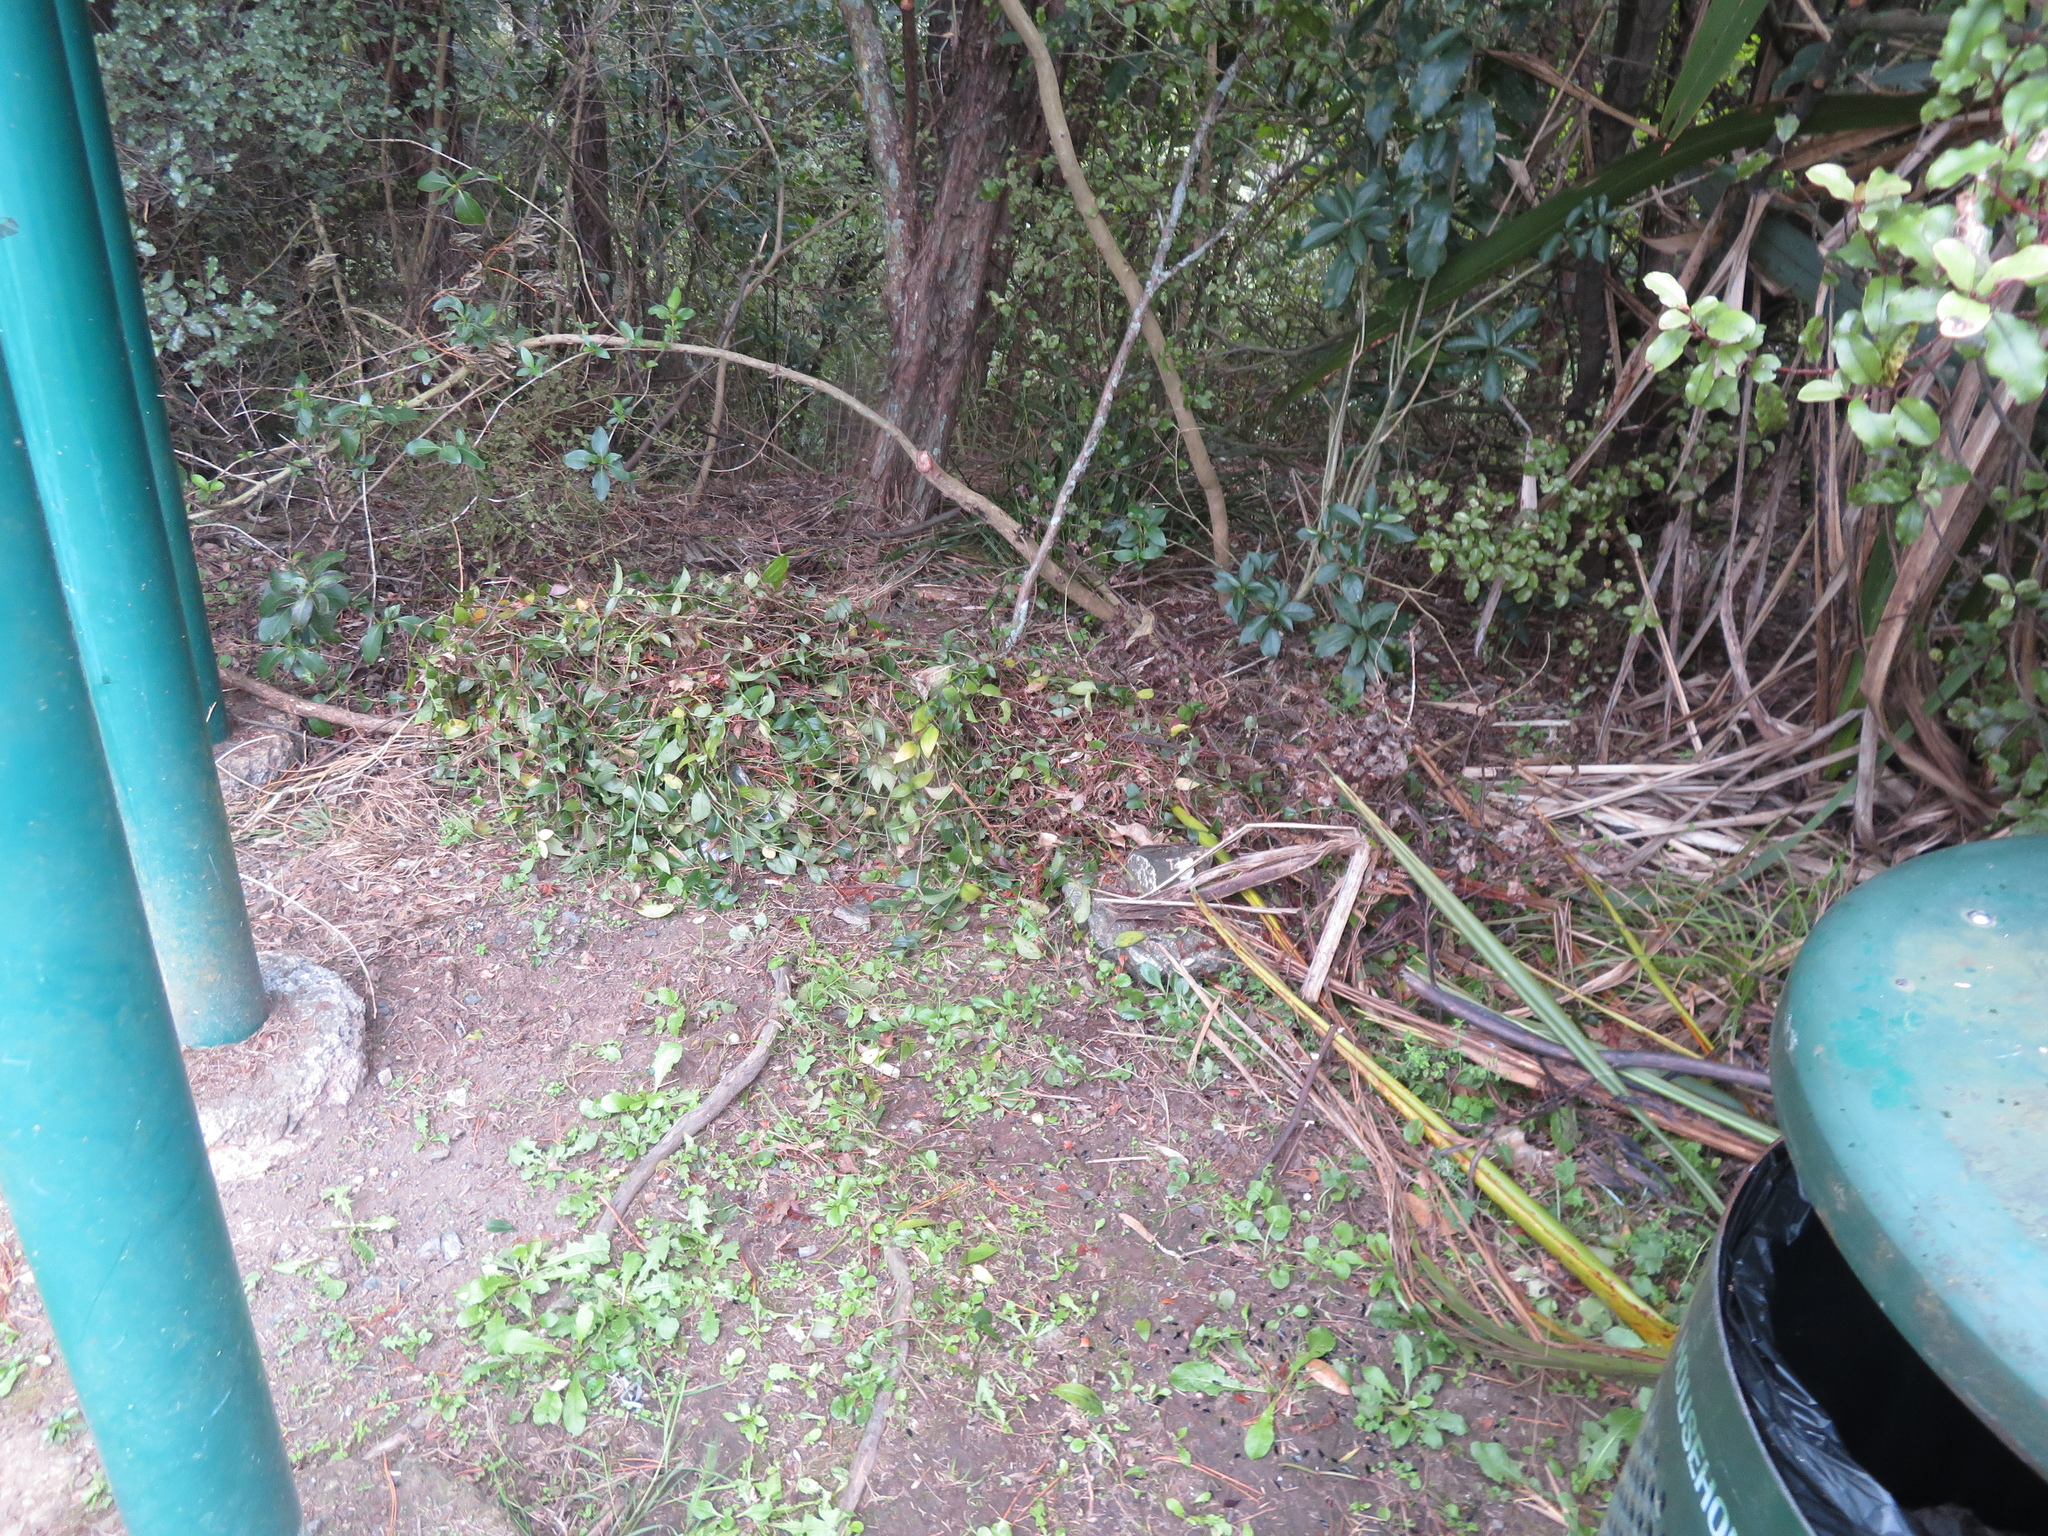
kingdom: Plantae
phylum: Tracheophyta
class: Liliopsida
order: Commelinales
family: Commelinaceae
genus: Tradescantia
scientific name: Tradescantia fluminensis
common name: Wandering-jew
